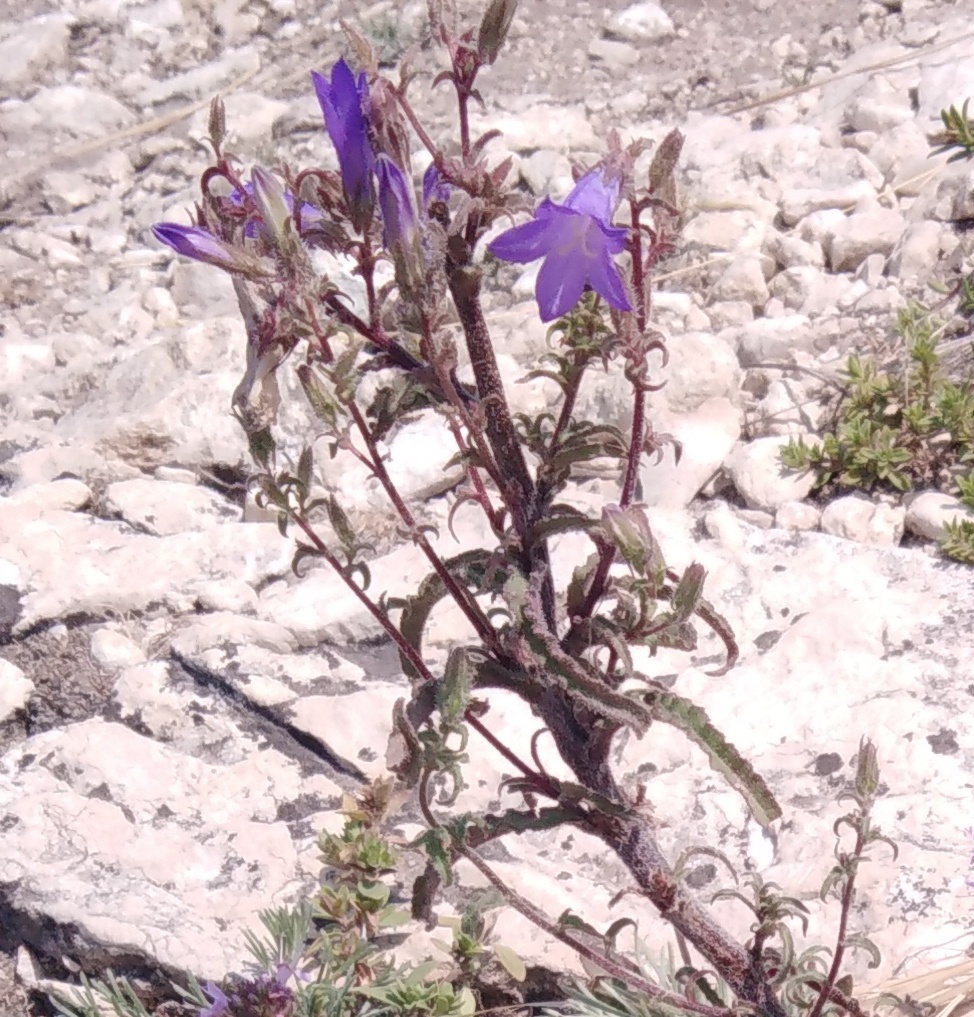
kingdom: Plantae
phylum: Tracheophyta
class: Magnoliopsida
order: Asterales
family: Campanulaceae
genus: Campanula
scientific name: Campanula sibirica
